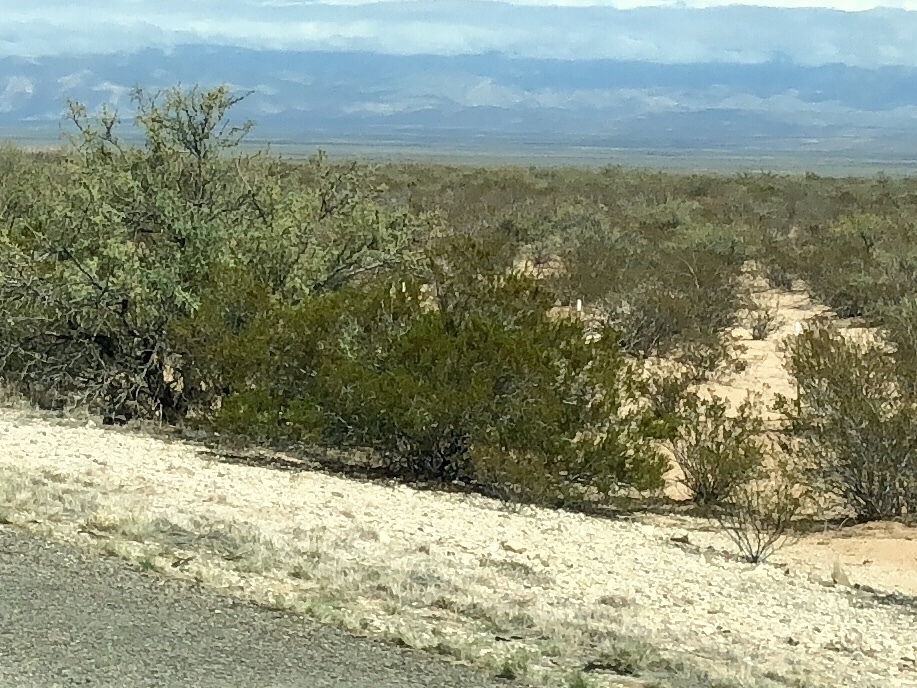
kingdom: Plantae
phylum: Tracheophyta
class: Magnoliopsida
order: Zygophyllales
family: Zygophyllaceae
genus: Larrea
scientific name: Larrea tridentata
